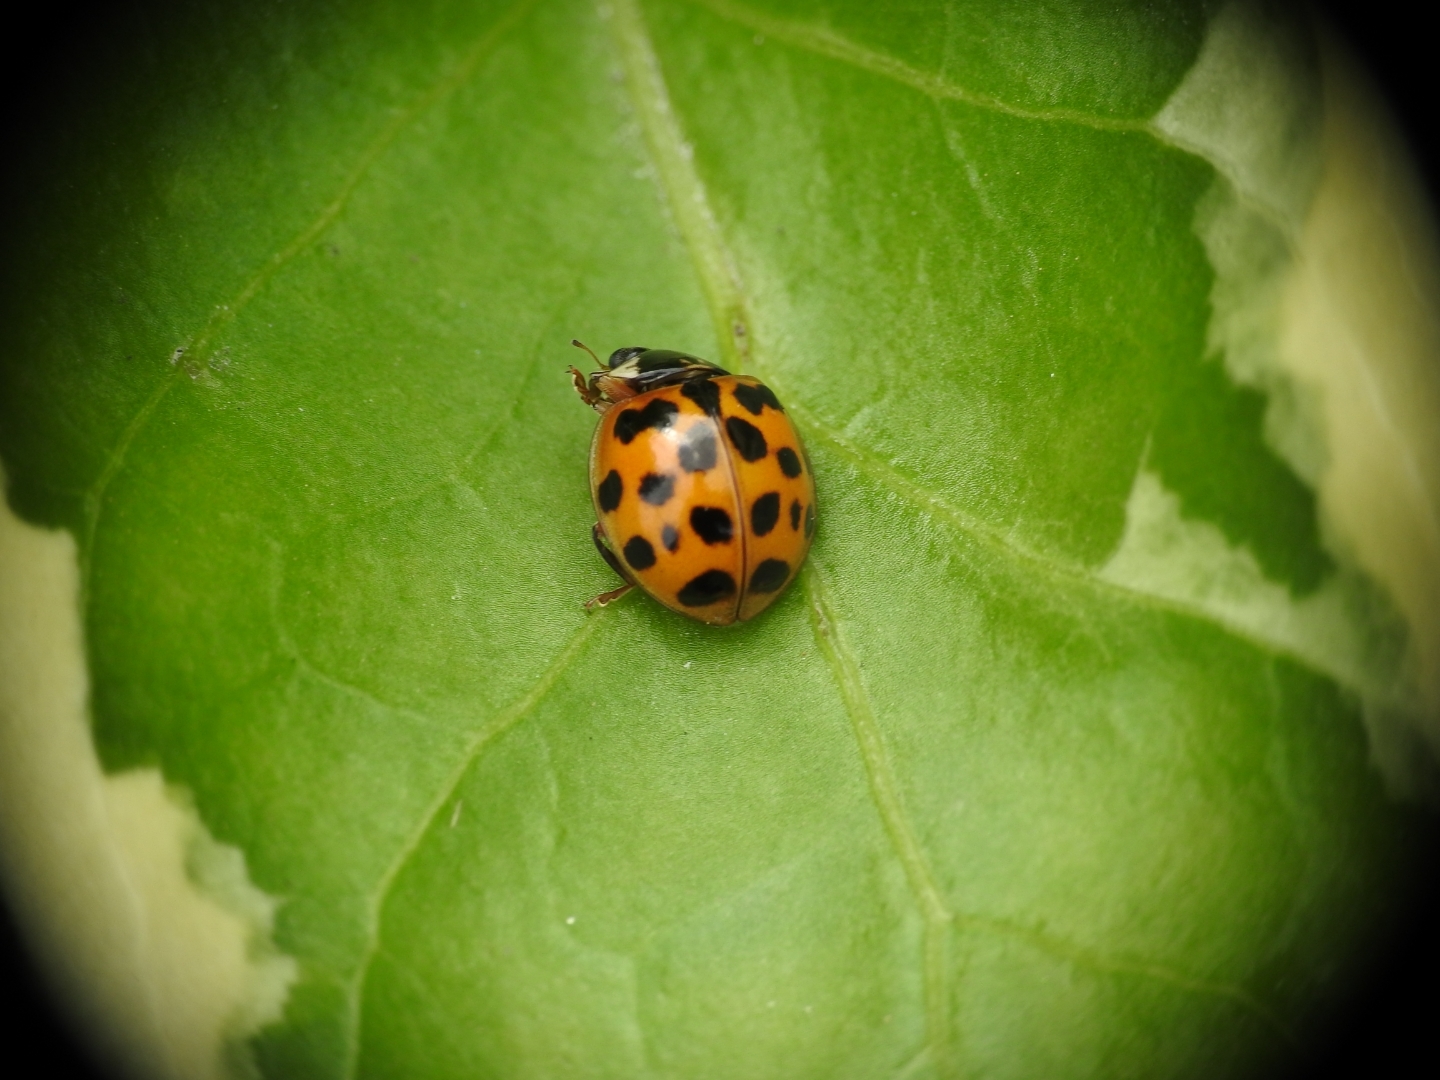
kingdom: Animalia
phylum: Arthropoda
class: Insecta
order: Coleoptera
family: Coccinellidae
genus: Harmonia
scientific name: Harmonia axyridis
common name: Harlequin ladybird
